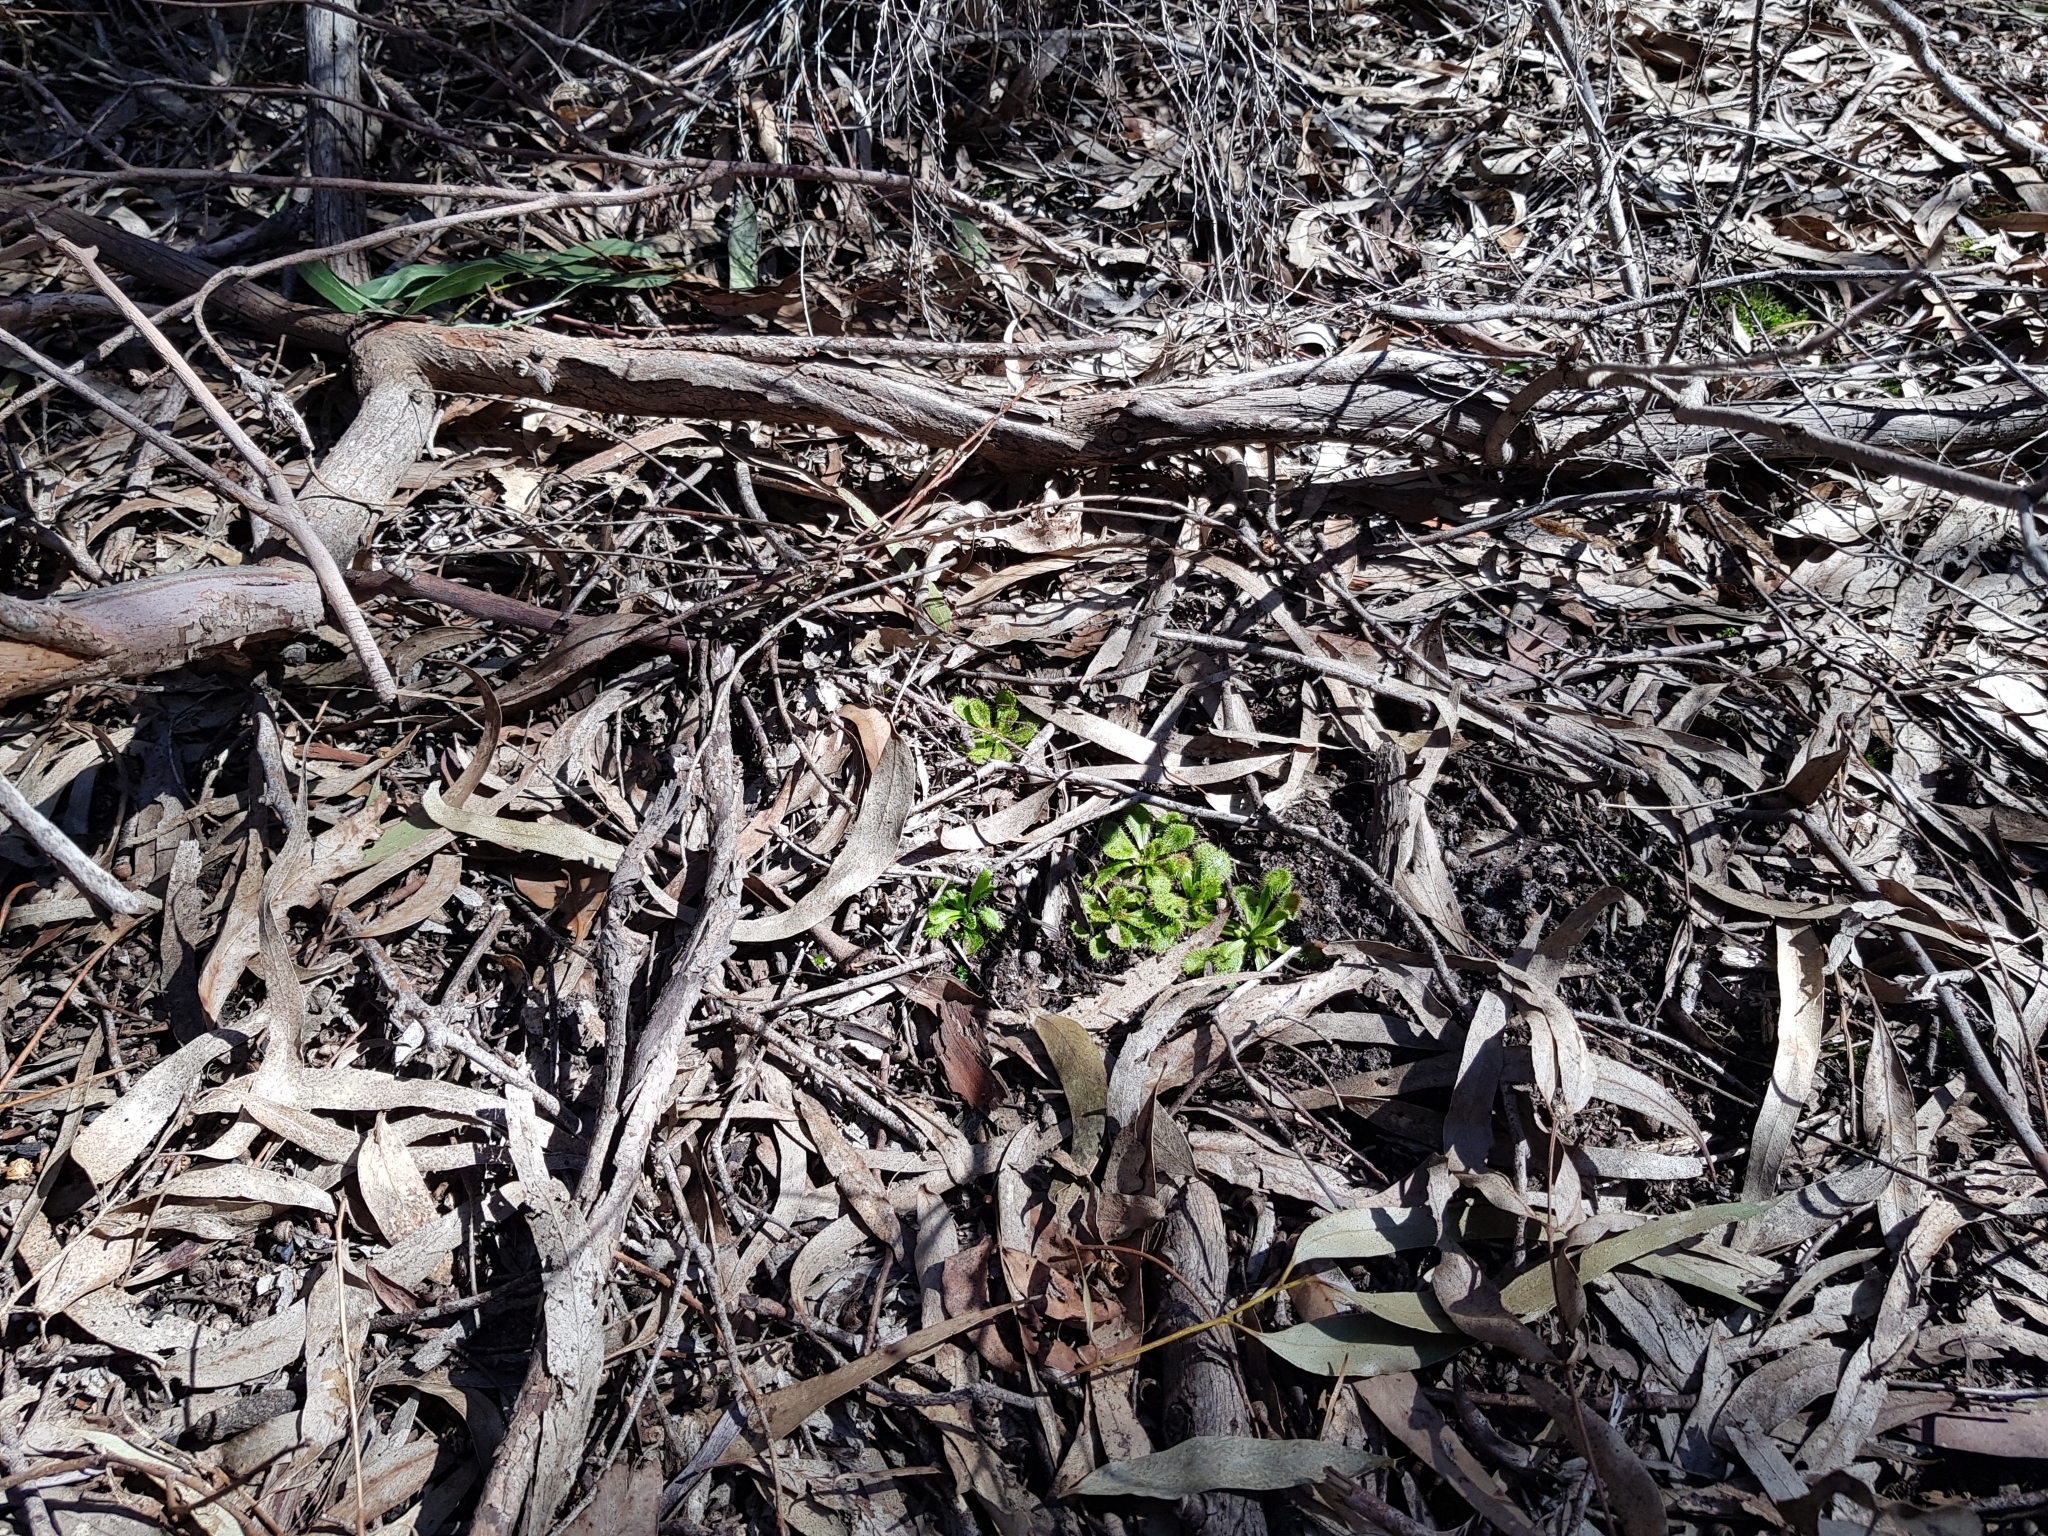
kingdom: Plantae
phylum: Tracheophyta
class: Magnoliopsida
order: Caryophyllales
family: Droseraceae
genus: Drosera
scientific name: Drosera aberrans
